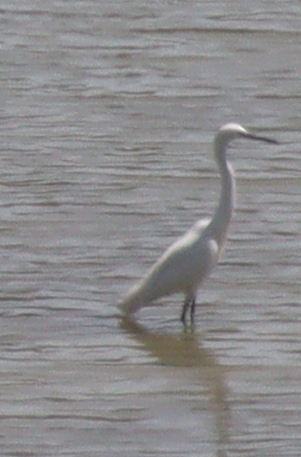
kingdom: Animalia
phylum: Chordata
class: Aves
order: Pelecaniformes
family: Ardeidae
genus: Egretta
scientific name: Egretta garzetta
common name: Little egret
